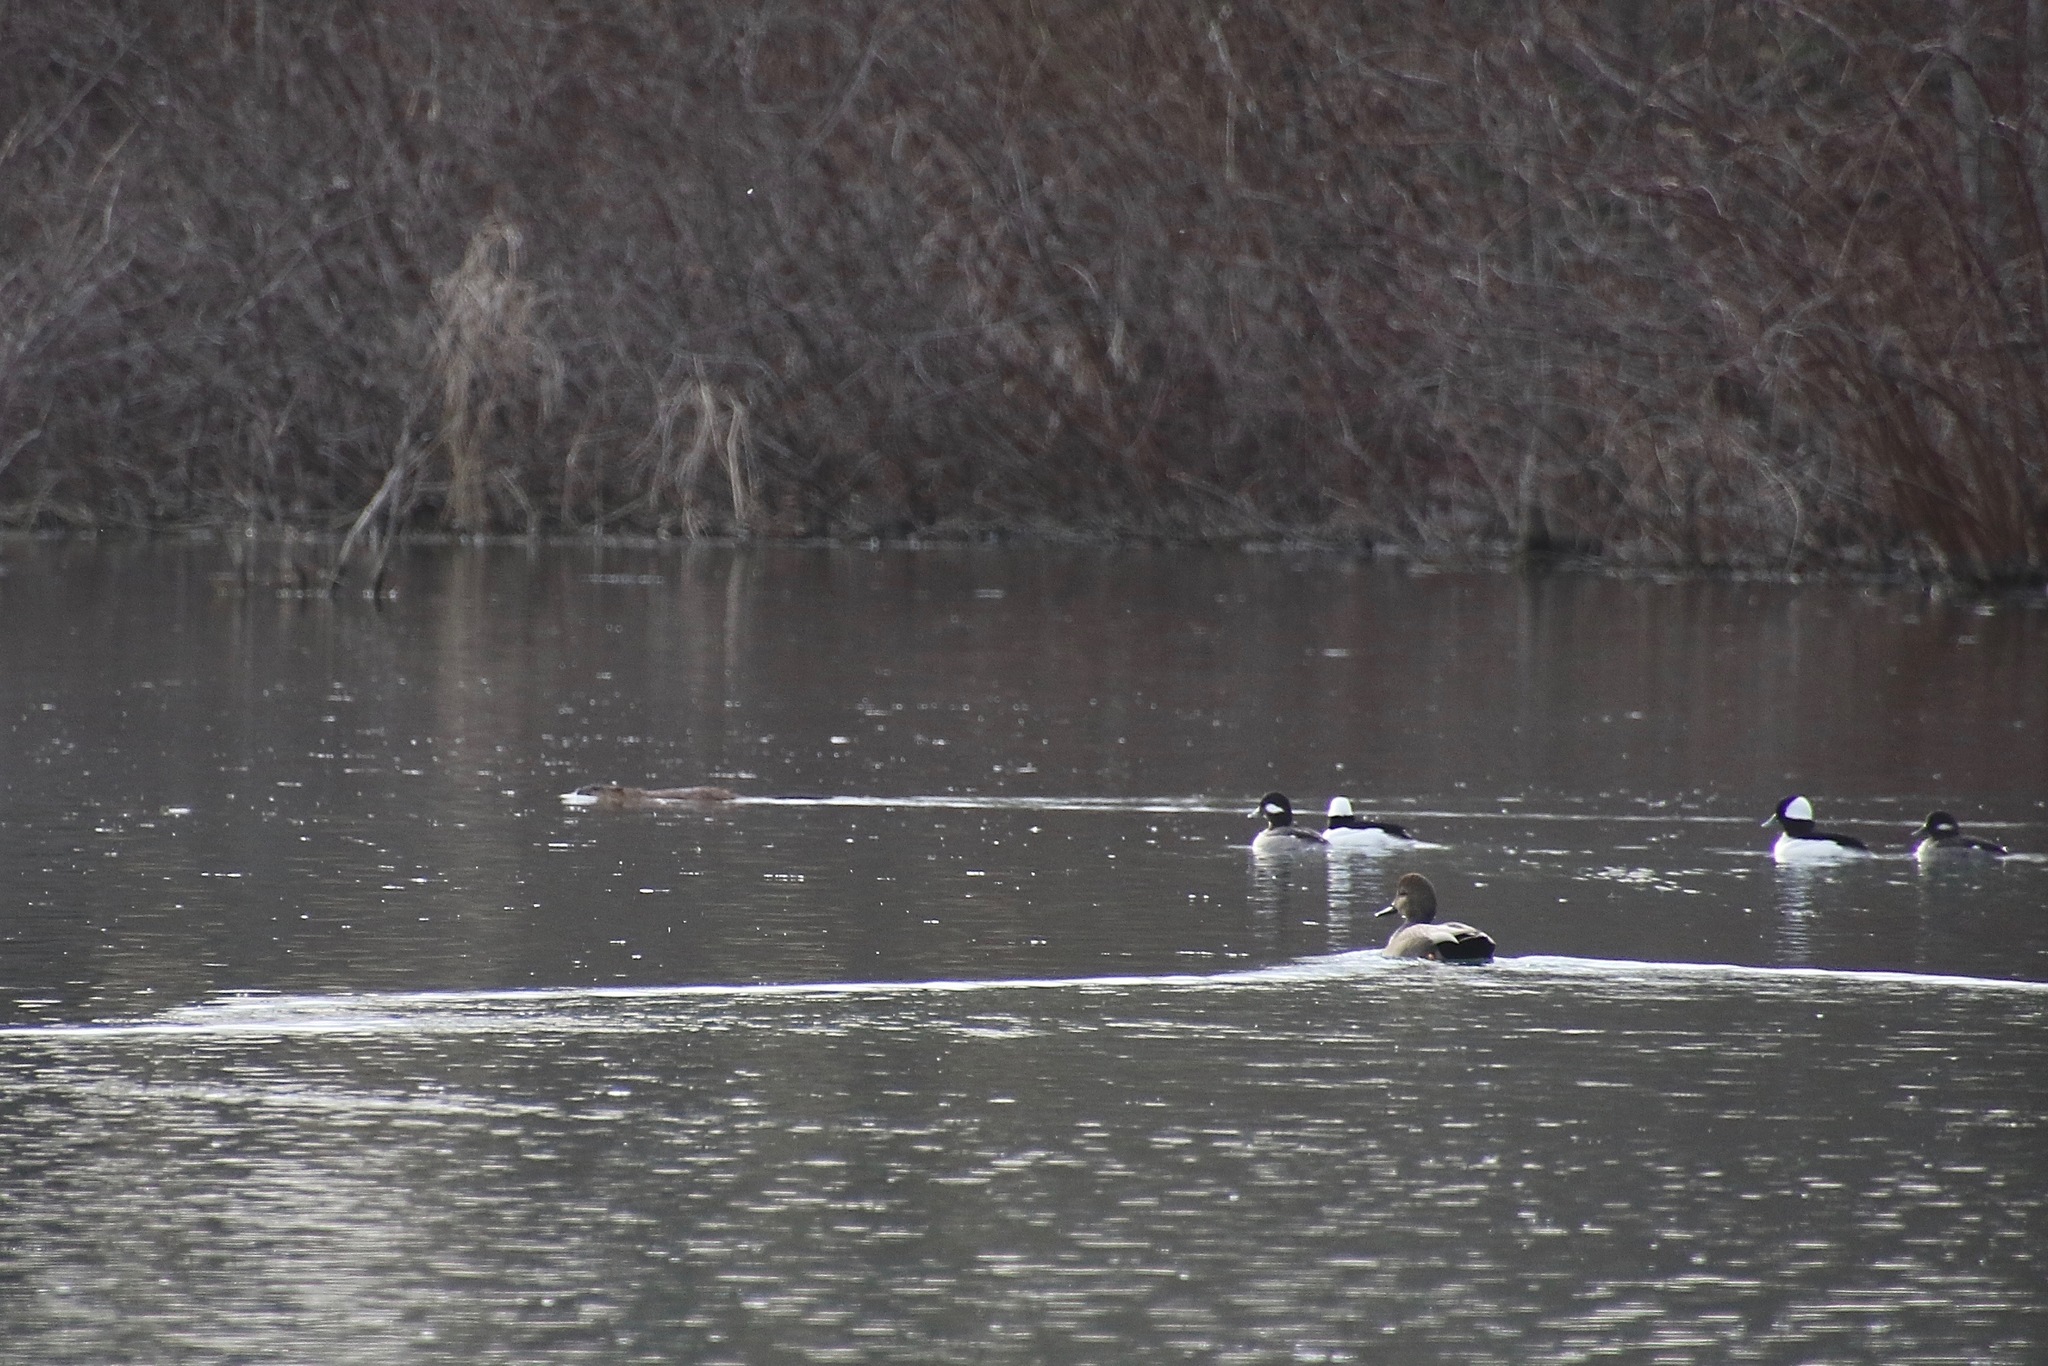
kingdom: Animalia
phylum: Chordata
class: Mammalia
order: Rodentia
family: Cricetidae
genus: Ondatra
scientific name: Ondatra zibethicus
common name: Muskrat
